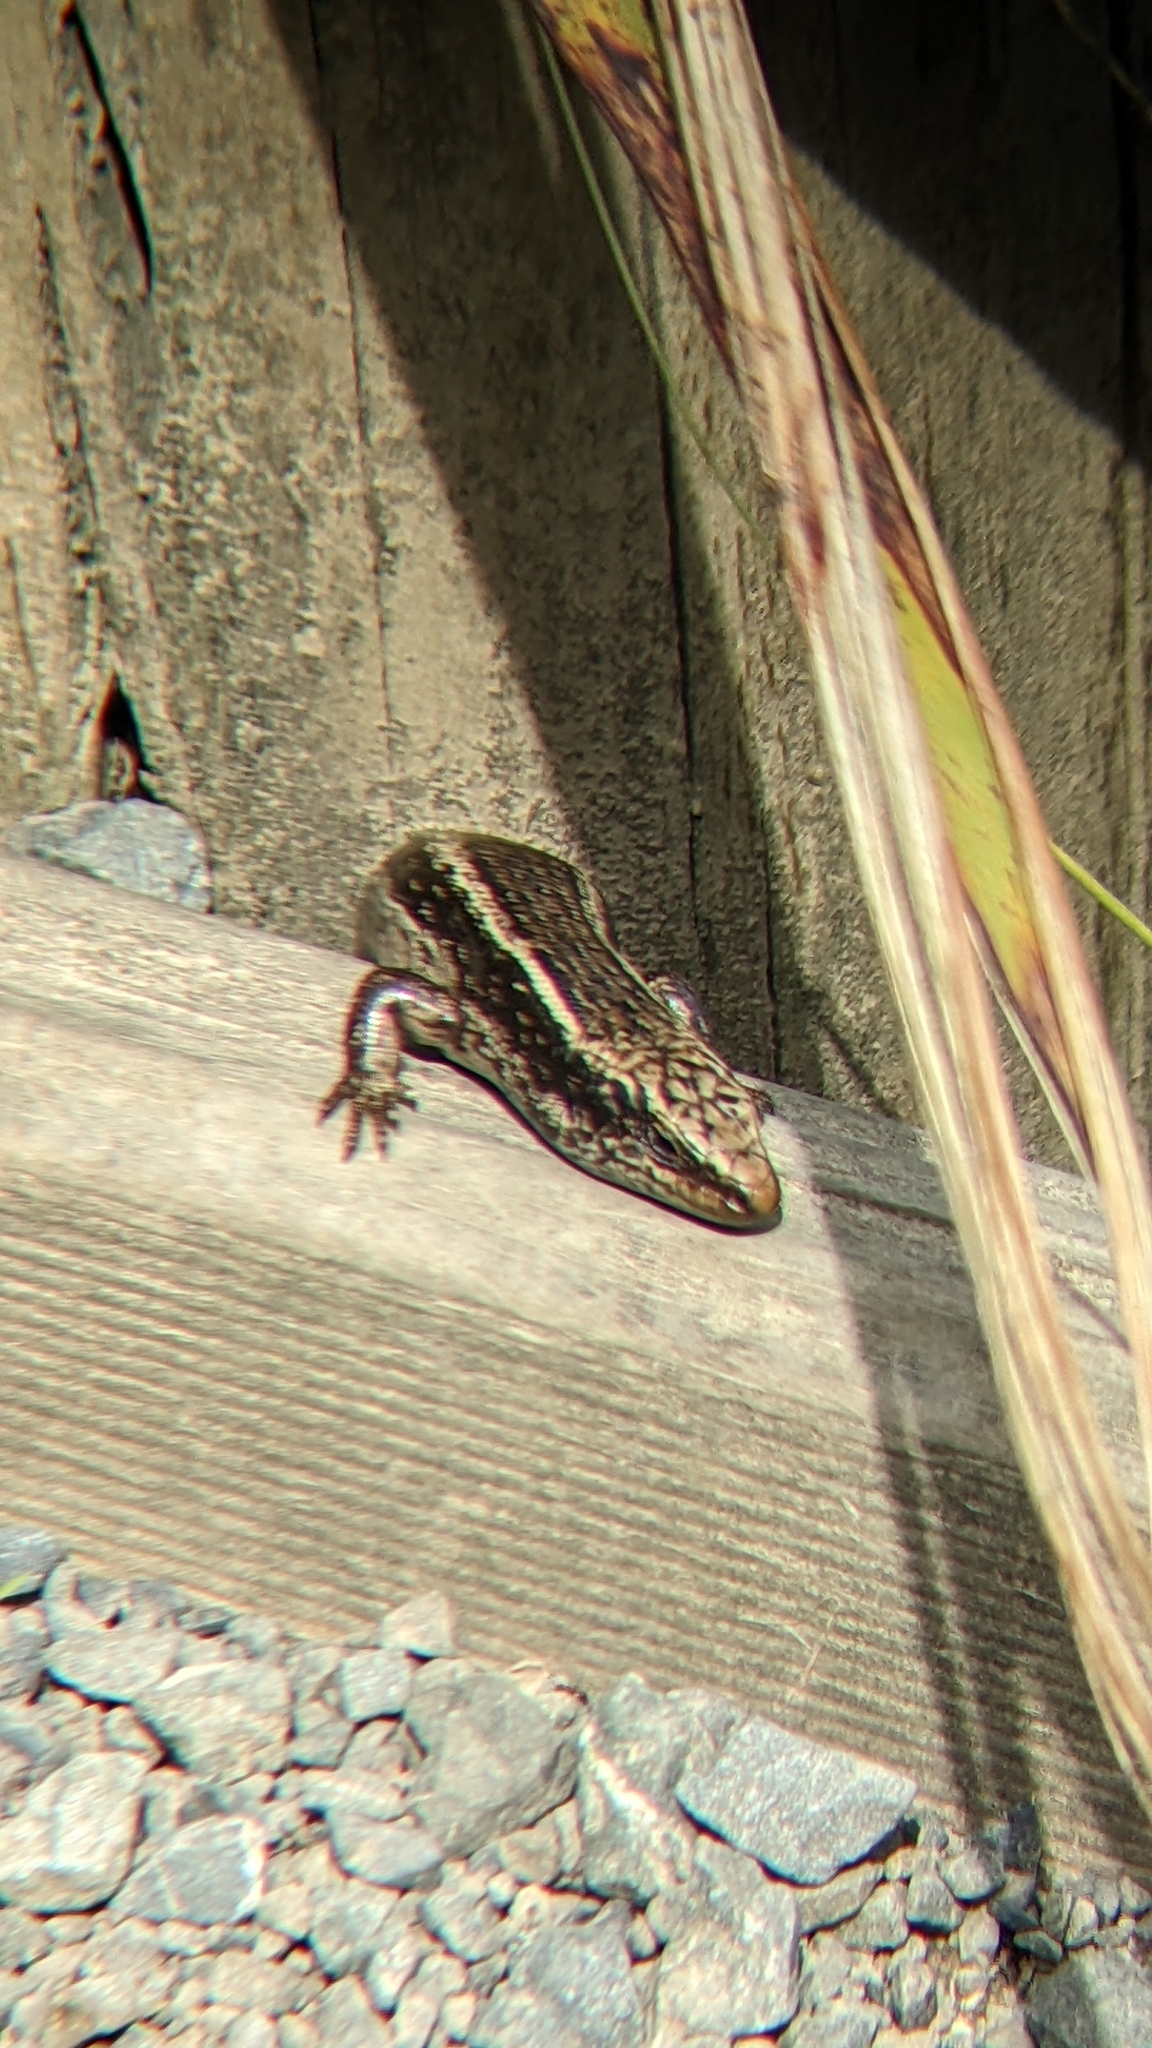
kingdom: Animalia
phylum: Chordata
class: Squamata
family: Scincidae
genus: Oligosoma
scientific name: Oligosoma kokowai
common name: Northern spotted skink
